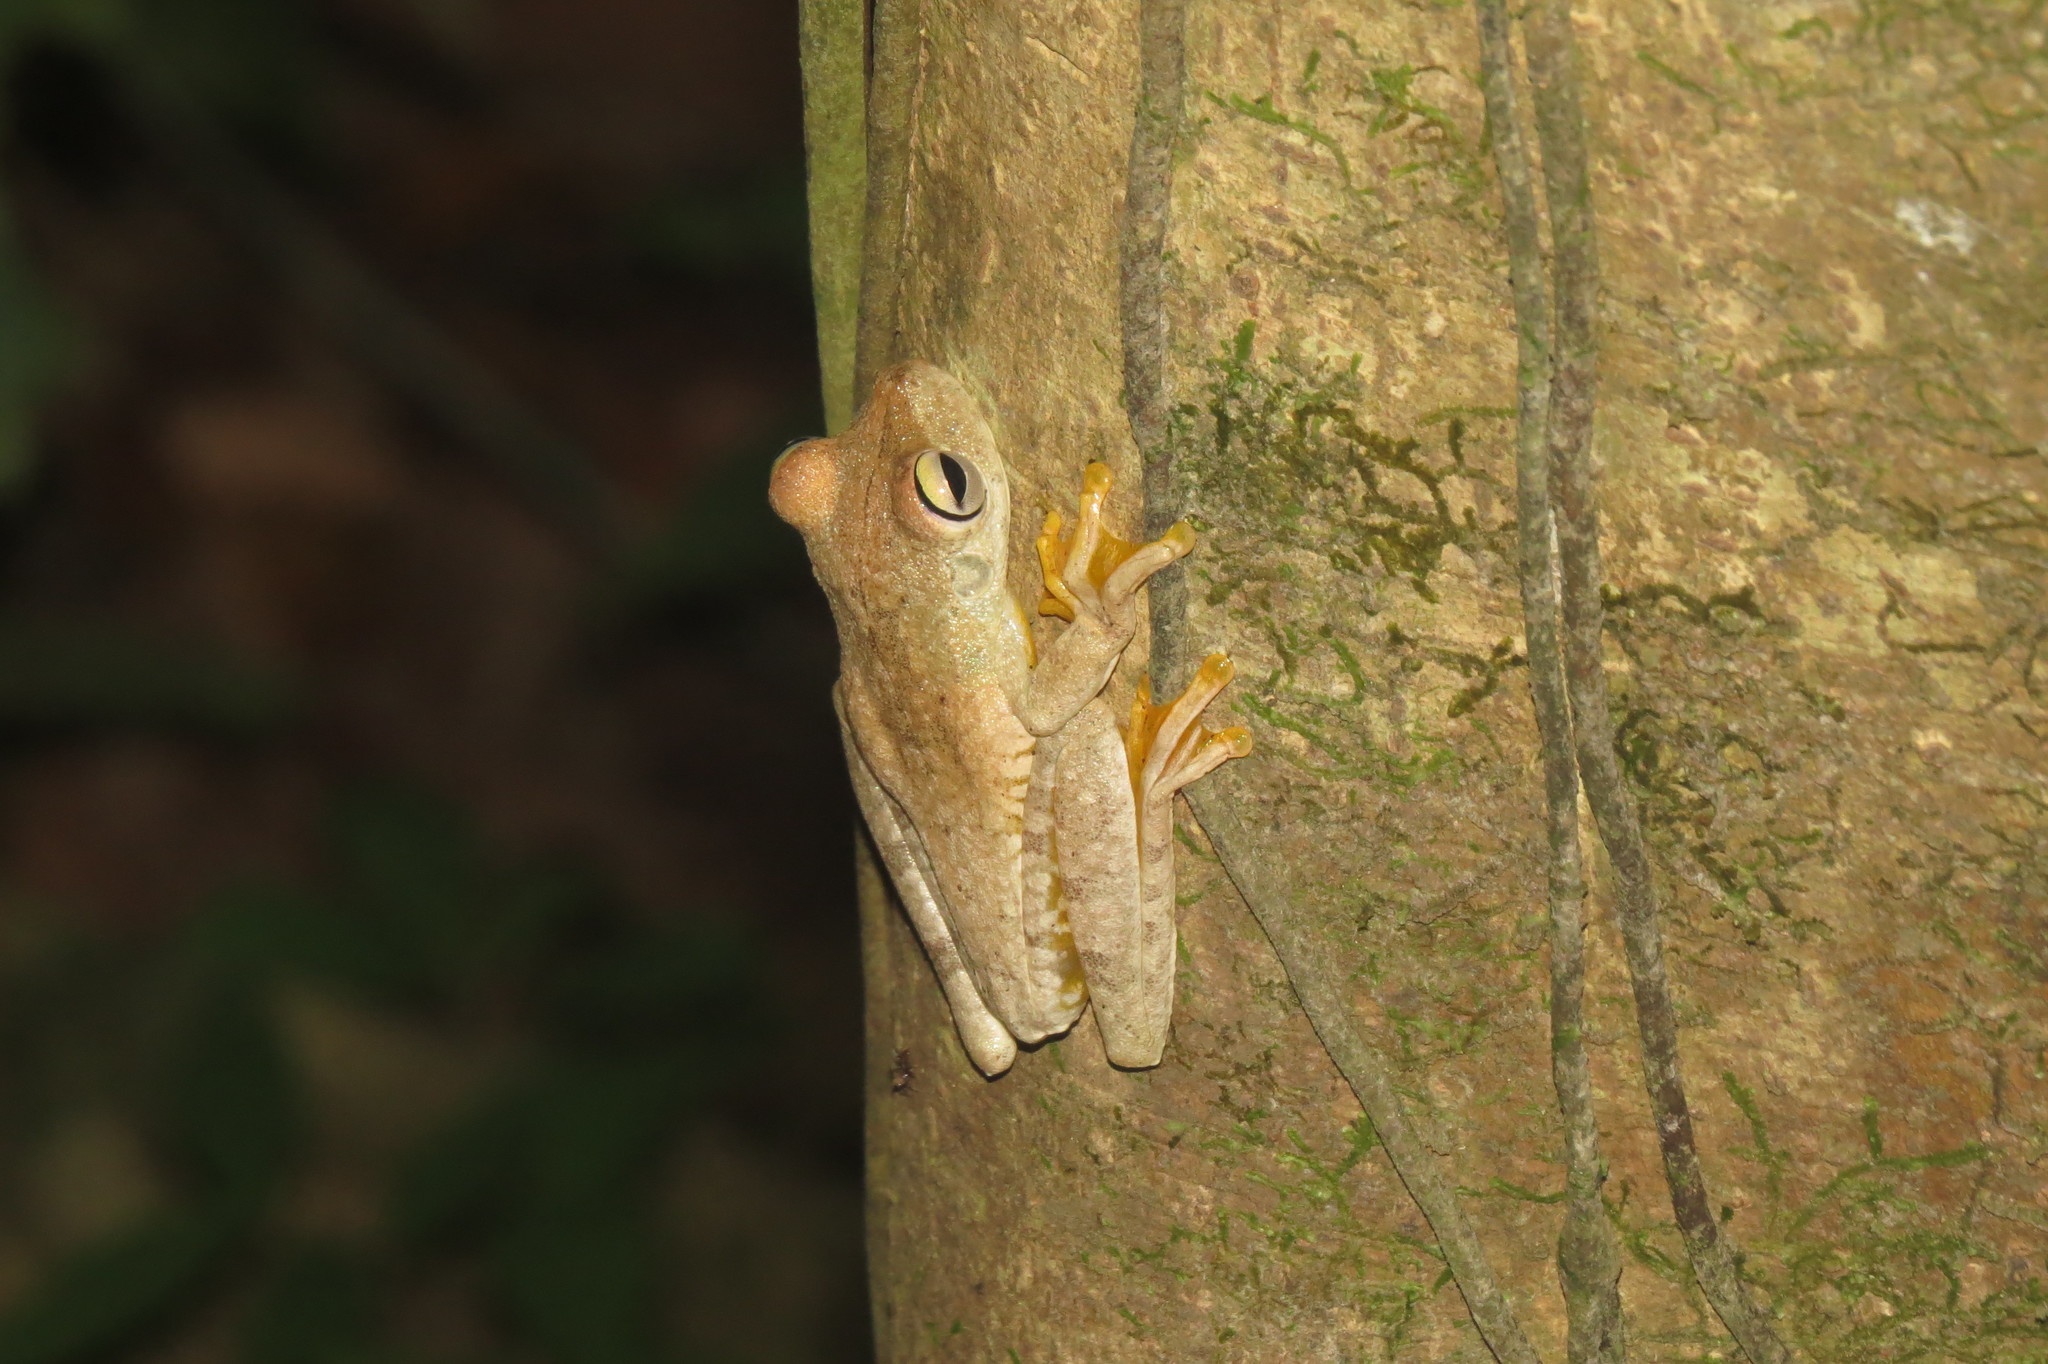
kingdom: Animalia
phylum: Chordata
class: Amphibia
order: Anura
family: Hylidae
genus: Boana
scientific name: Boana rosenbergi
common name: Rosenberg´s gladiator treefrog
